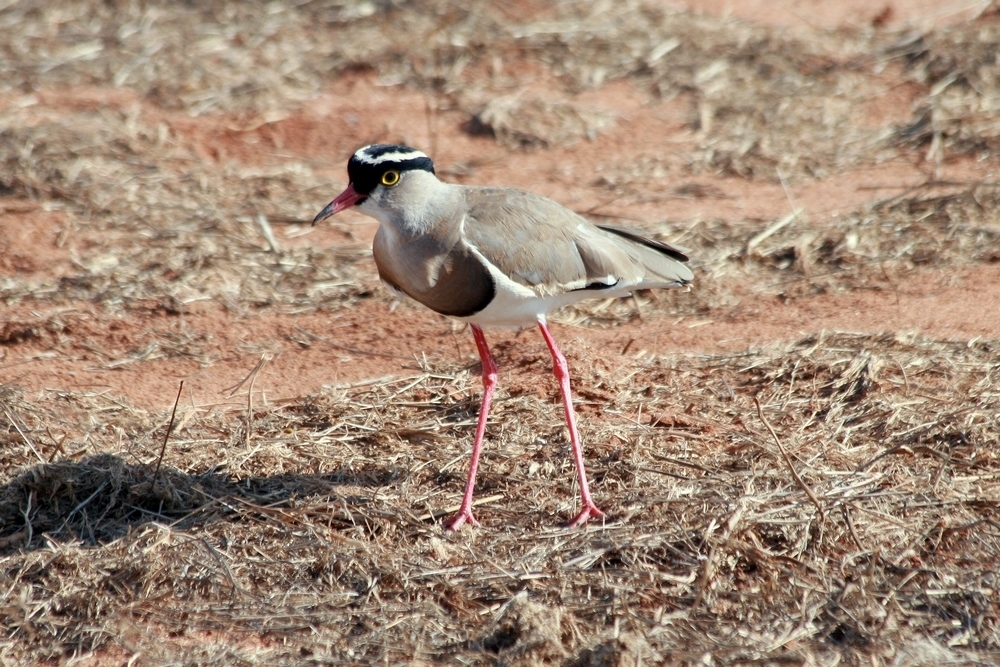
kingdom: Animalia
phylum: Chordata
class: Aves
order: Charadriiformes
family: Charadriidae
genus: Vanellus
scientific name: Vanellus coronatus
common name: Crowned lapwing
